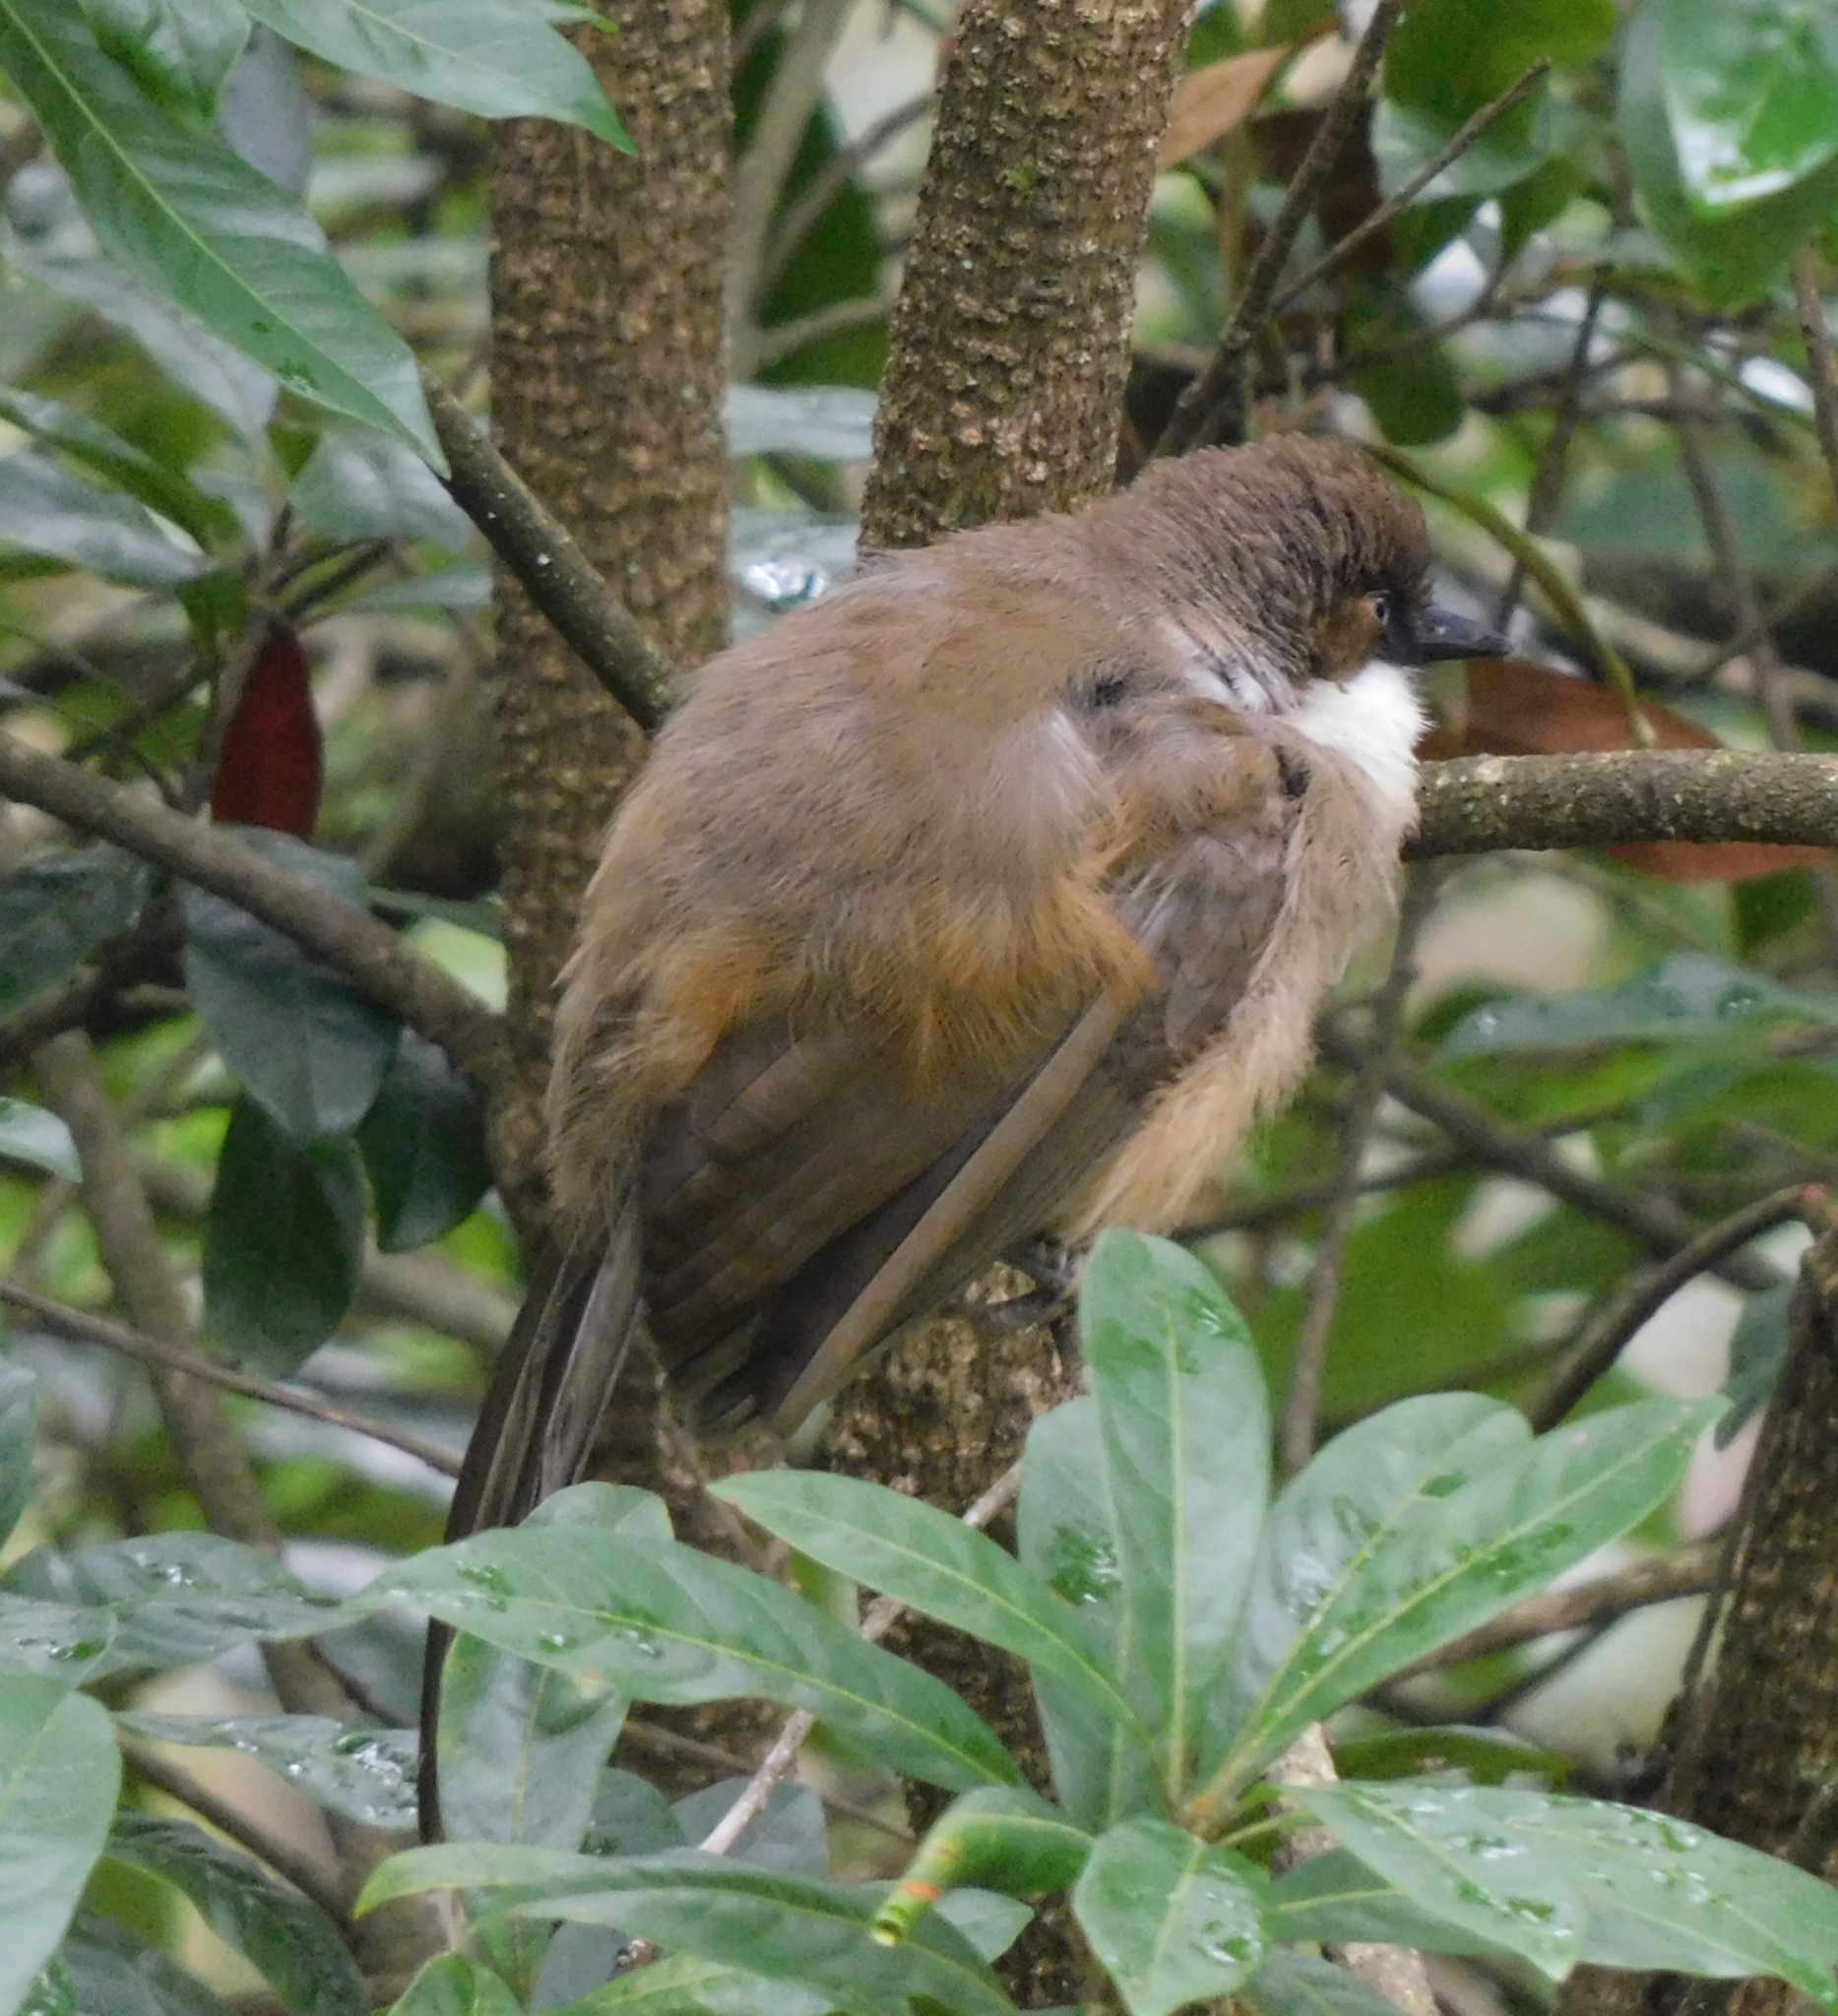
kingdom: Animalia
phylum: Chordata
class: Aves
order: Passeriformes
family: Leiothrichidae
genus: Garrulax
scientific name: Garrulax albogularis
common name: White-throated laughingthrush
